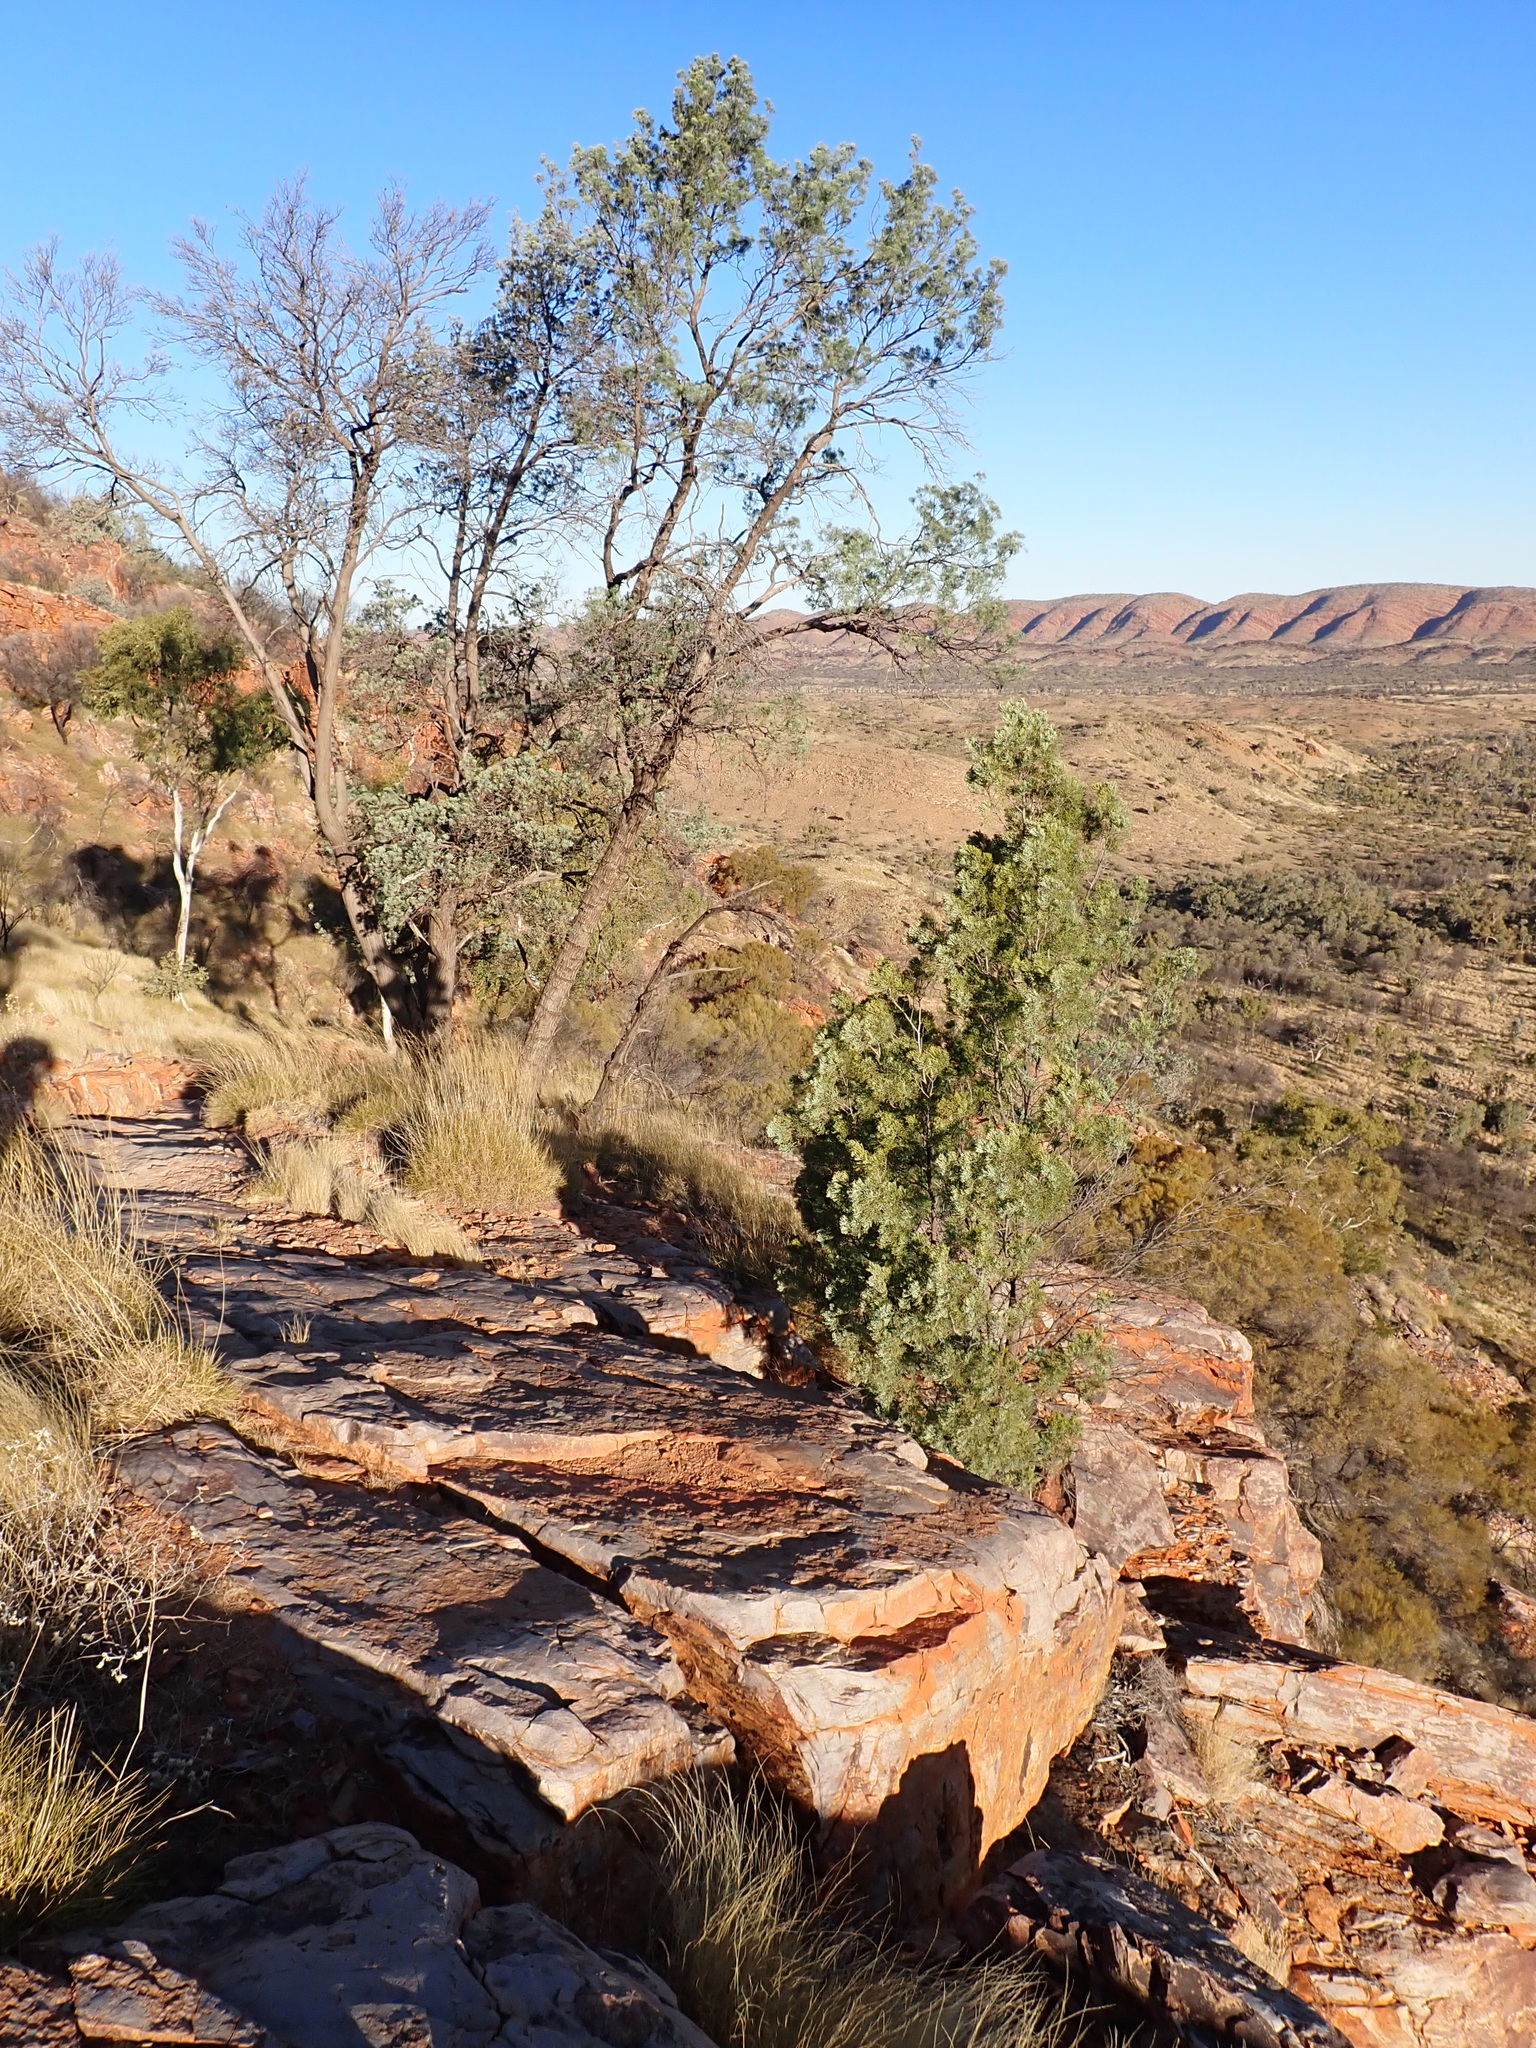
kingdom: Plantae
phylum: Tracheophyta
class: Pinopsida
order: Pinales
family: Cupressaceae
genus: Callitris
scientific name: Callitris columellaris
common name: White cypress-pine
